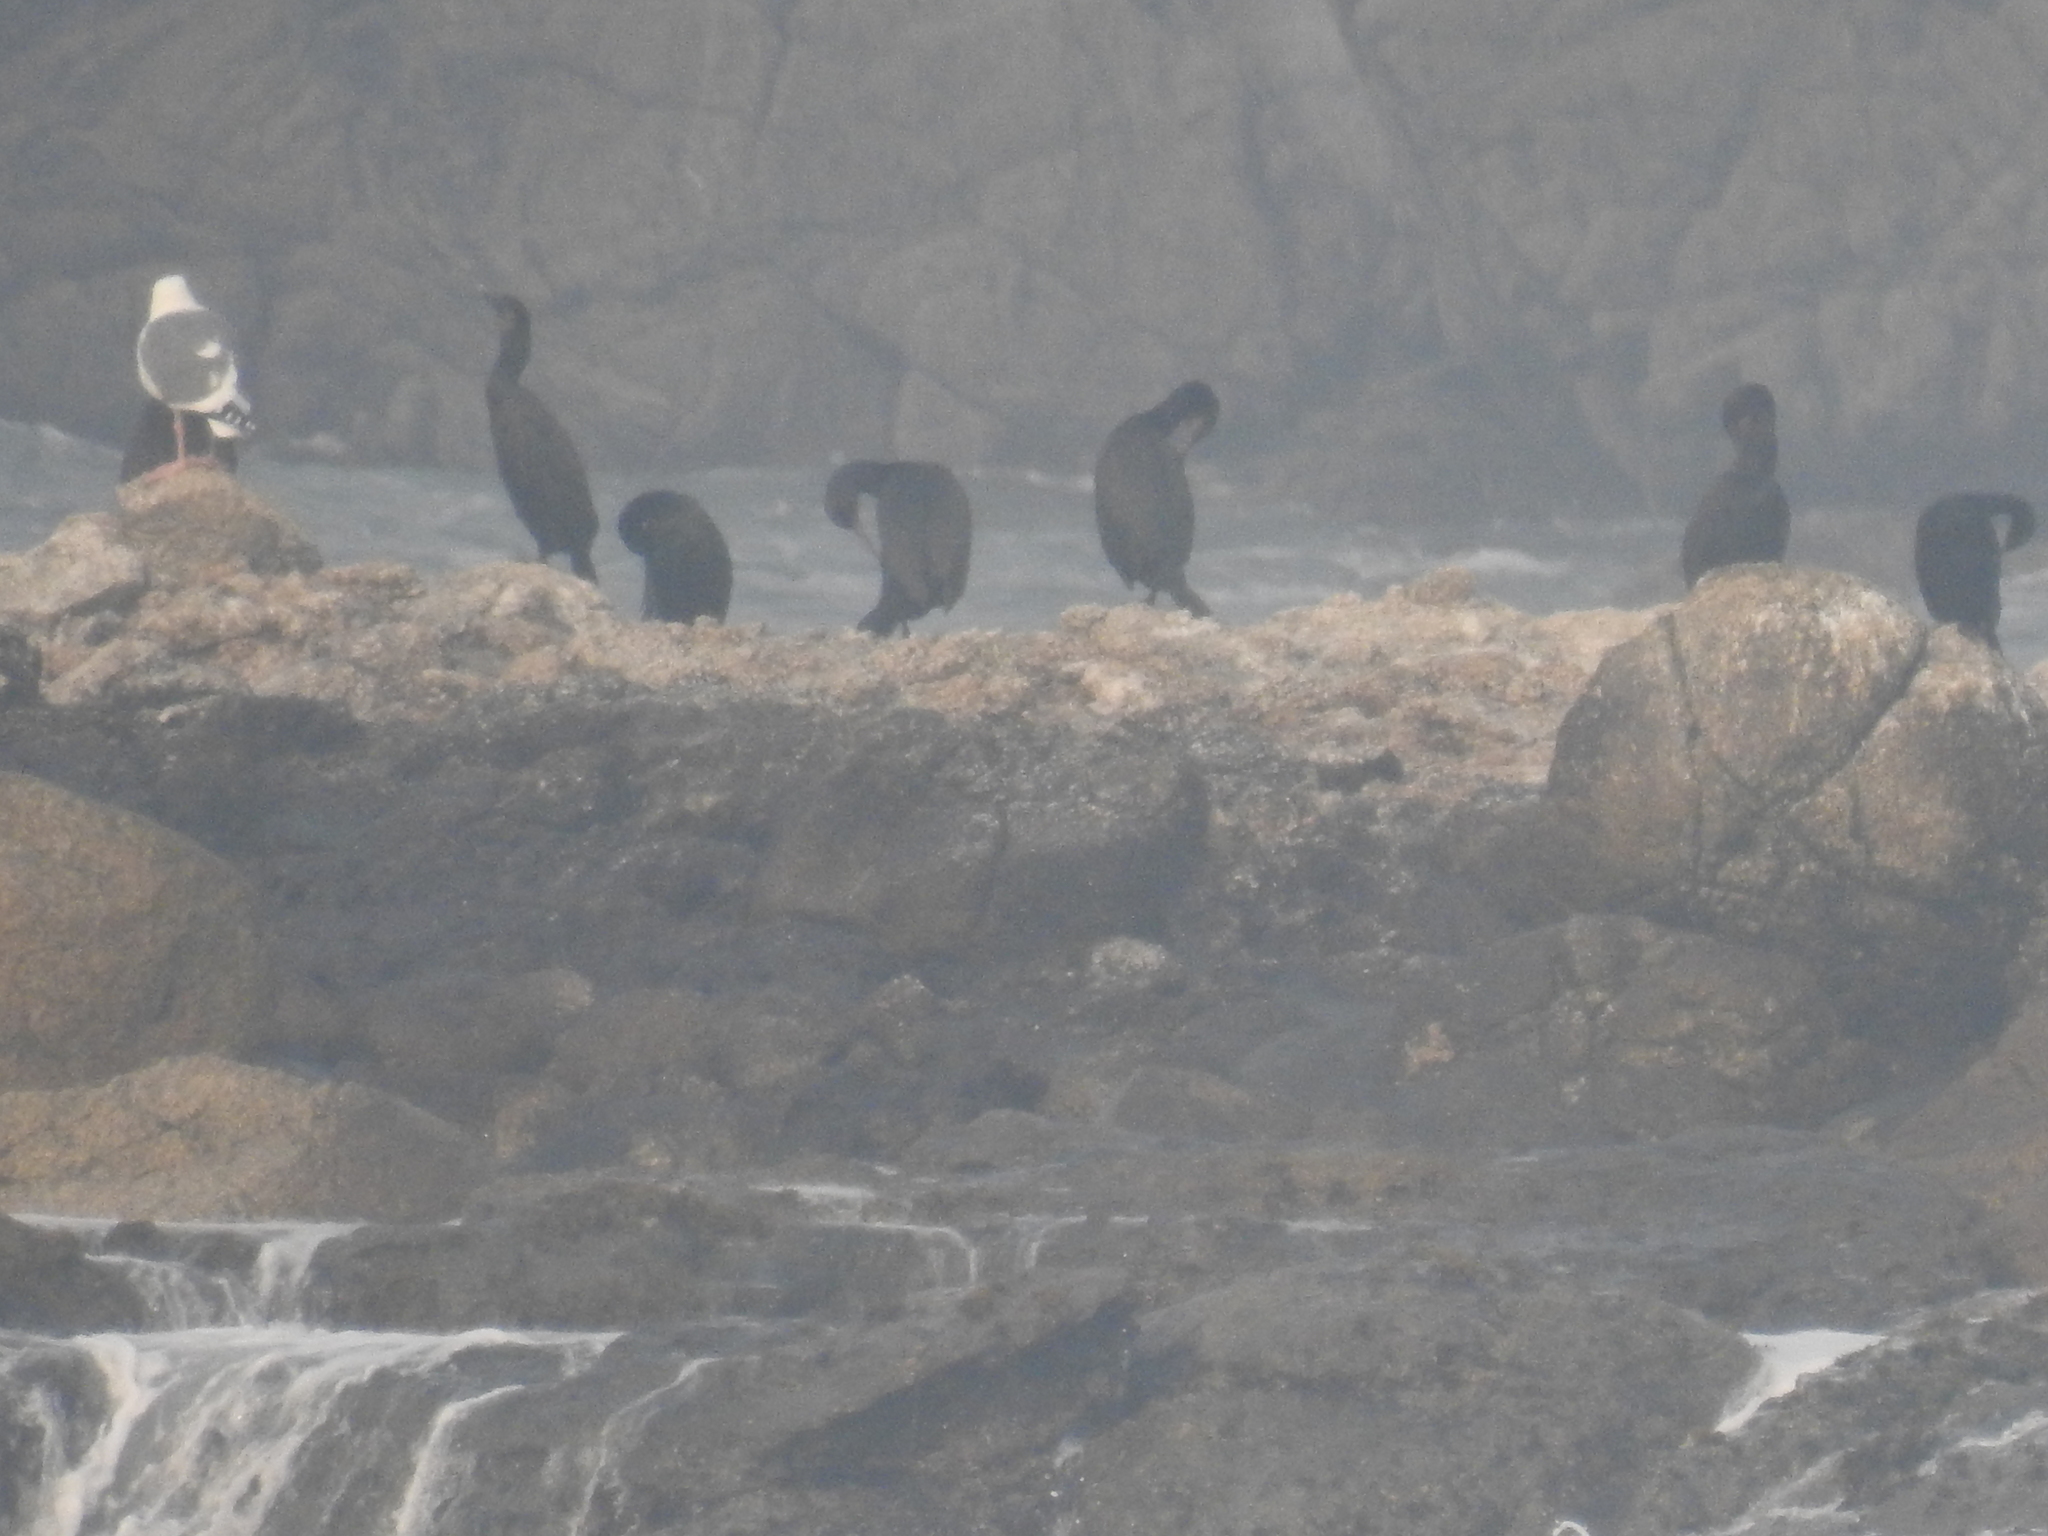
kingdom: Animalia
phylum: Chordata
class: Aves
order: Suliformes
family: Phalacrocoracidae
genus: Urile
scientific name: Urile penicillatus
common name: Brandt's cormorant
